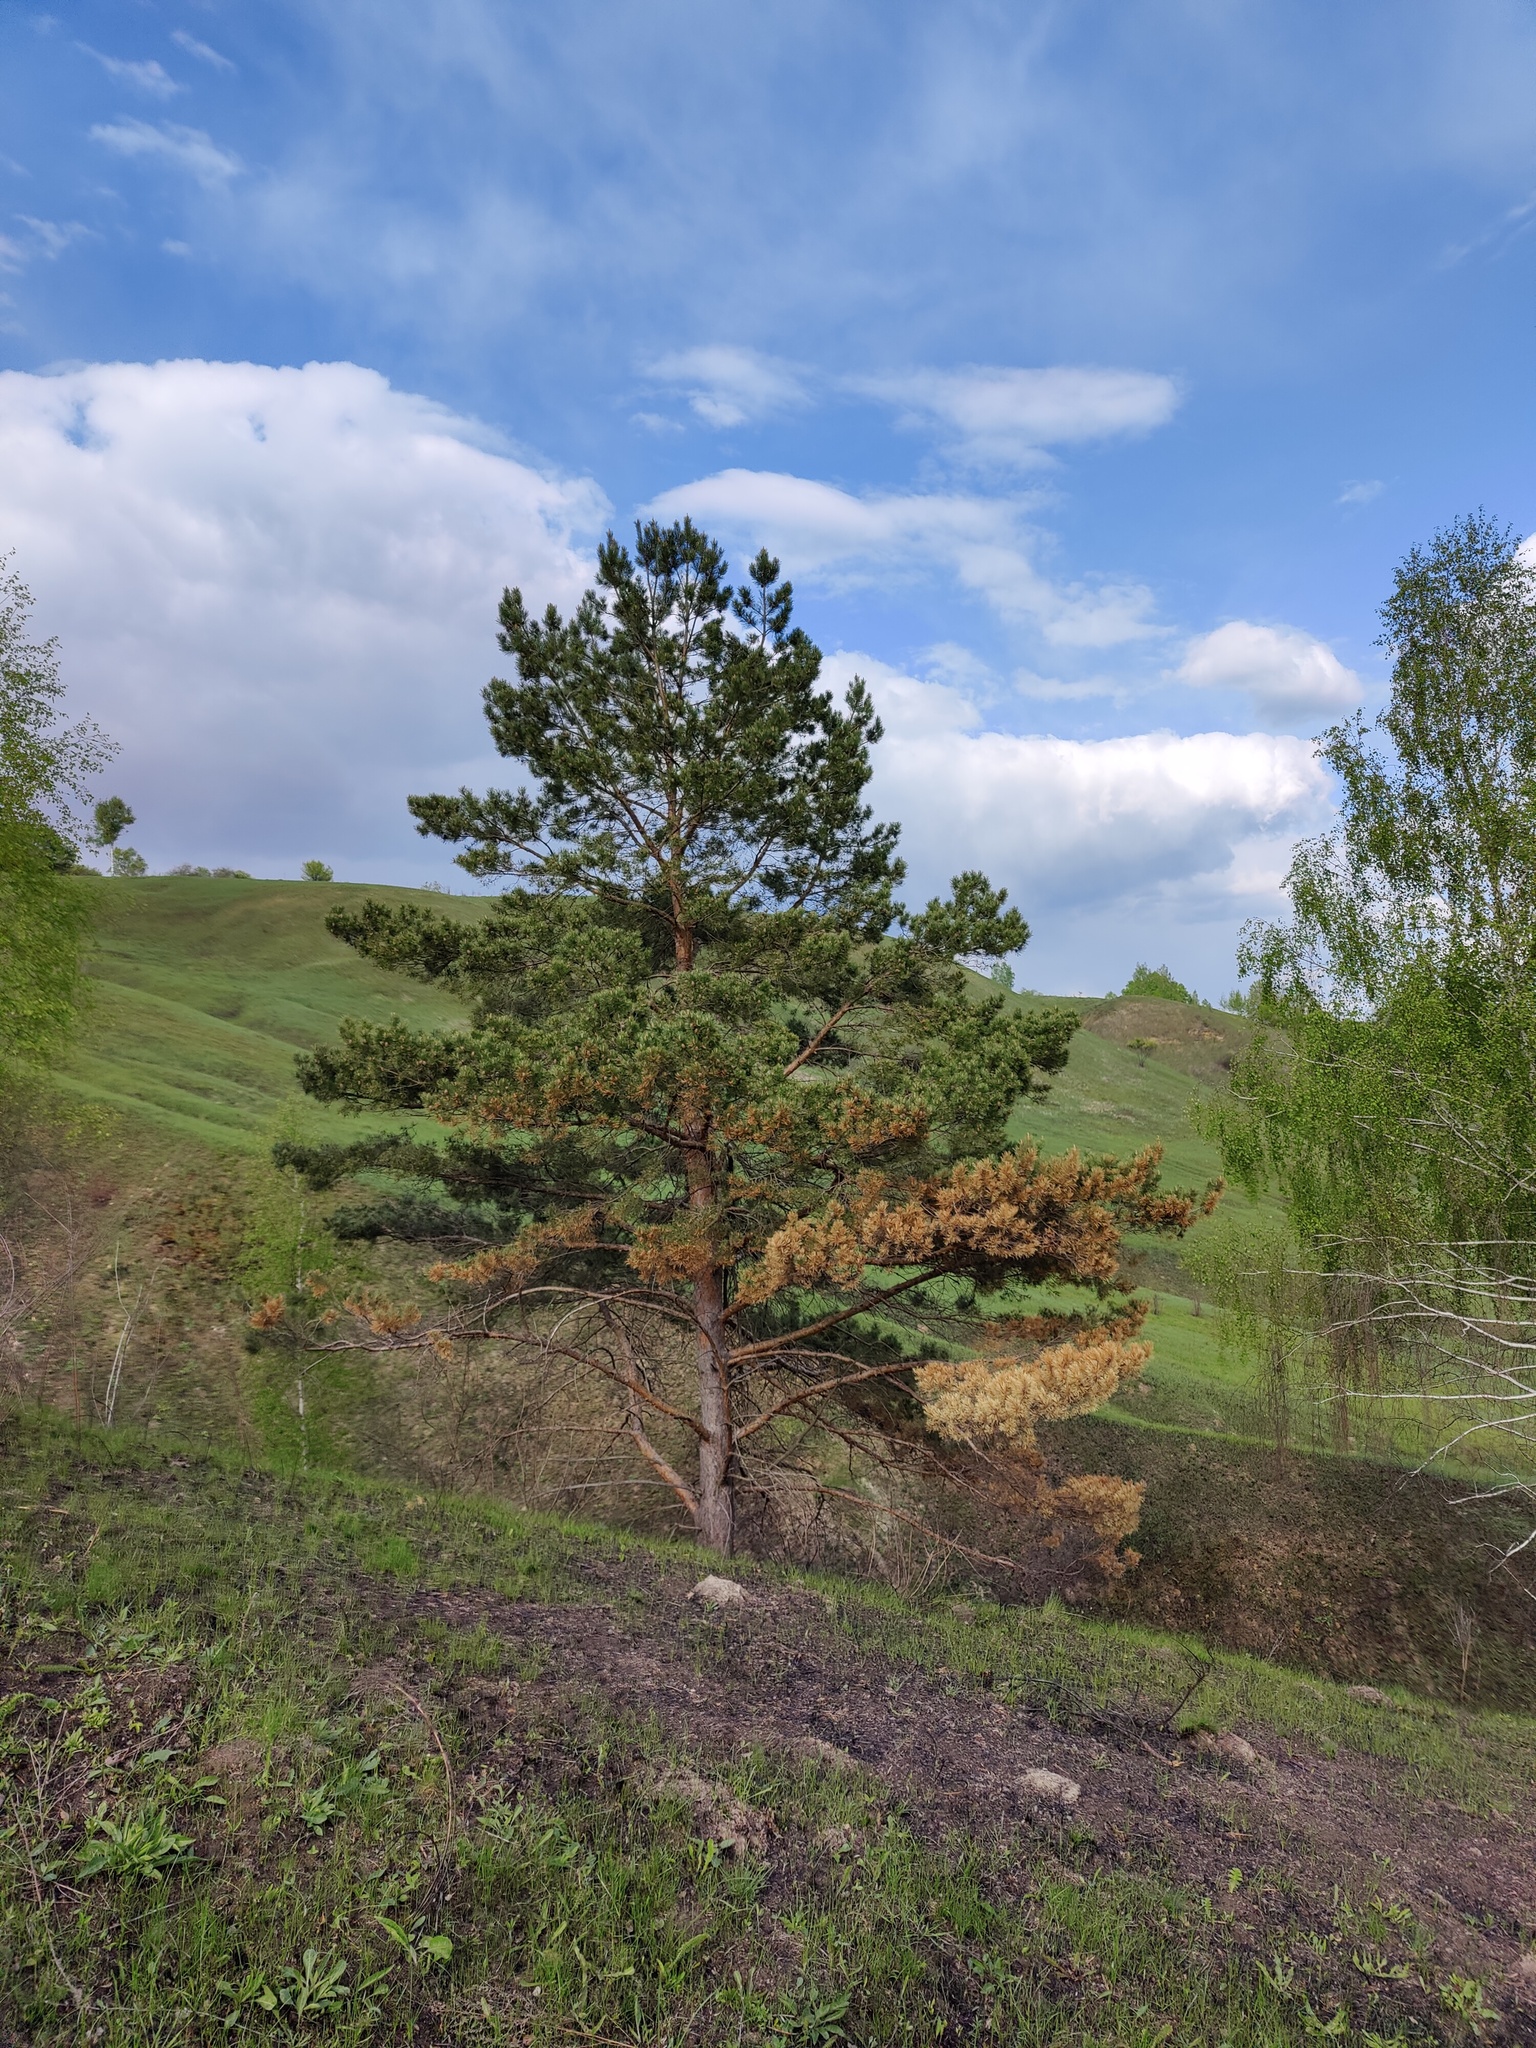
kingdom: Plantae
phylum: Tracheophyta
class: Pinopsida
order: Pinales
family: Pinaceae
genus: Pinus
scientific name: Pinus sylvestris
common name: Scots pine
